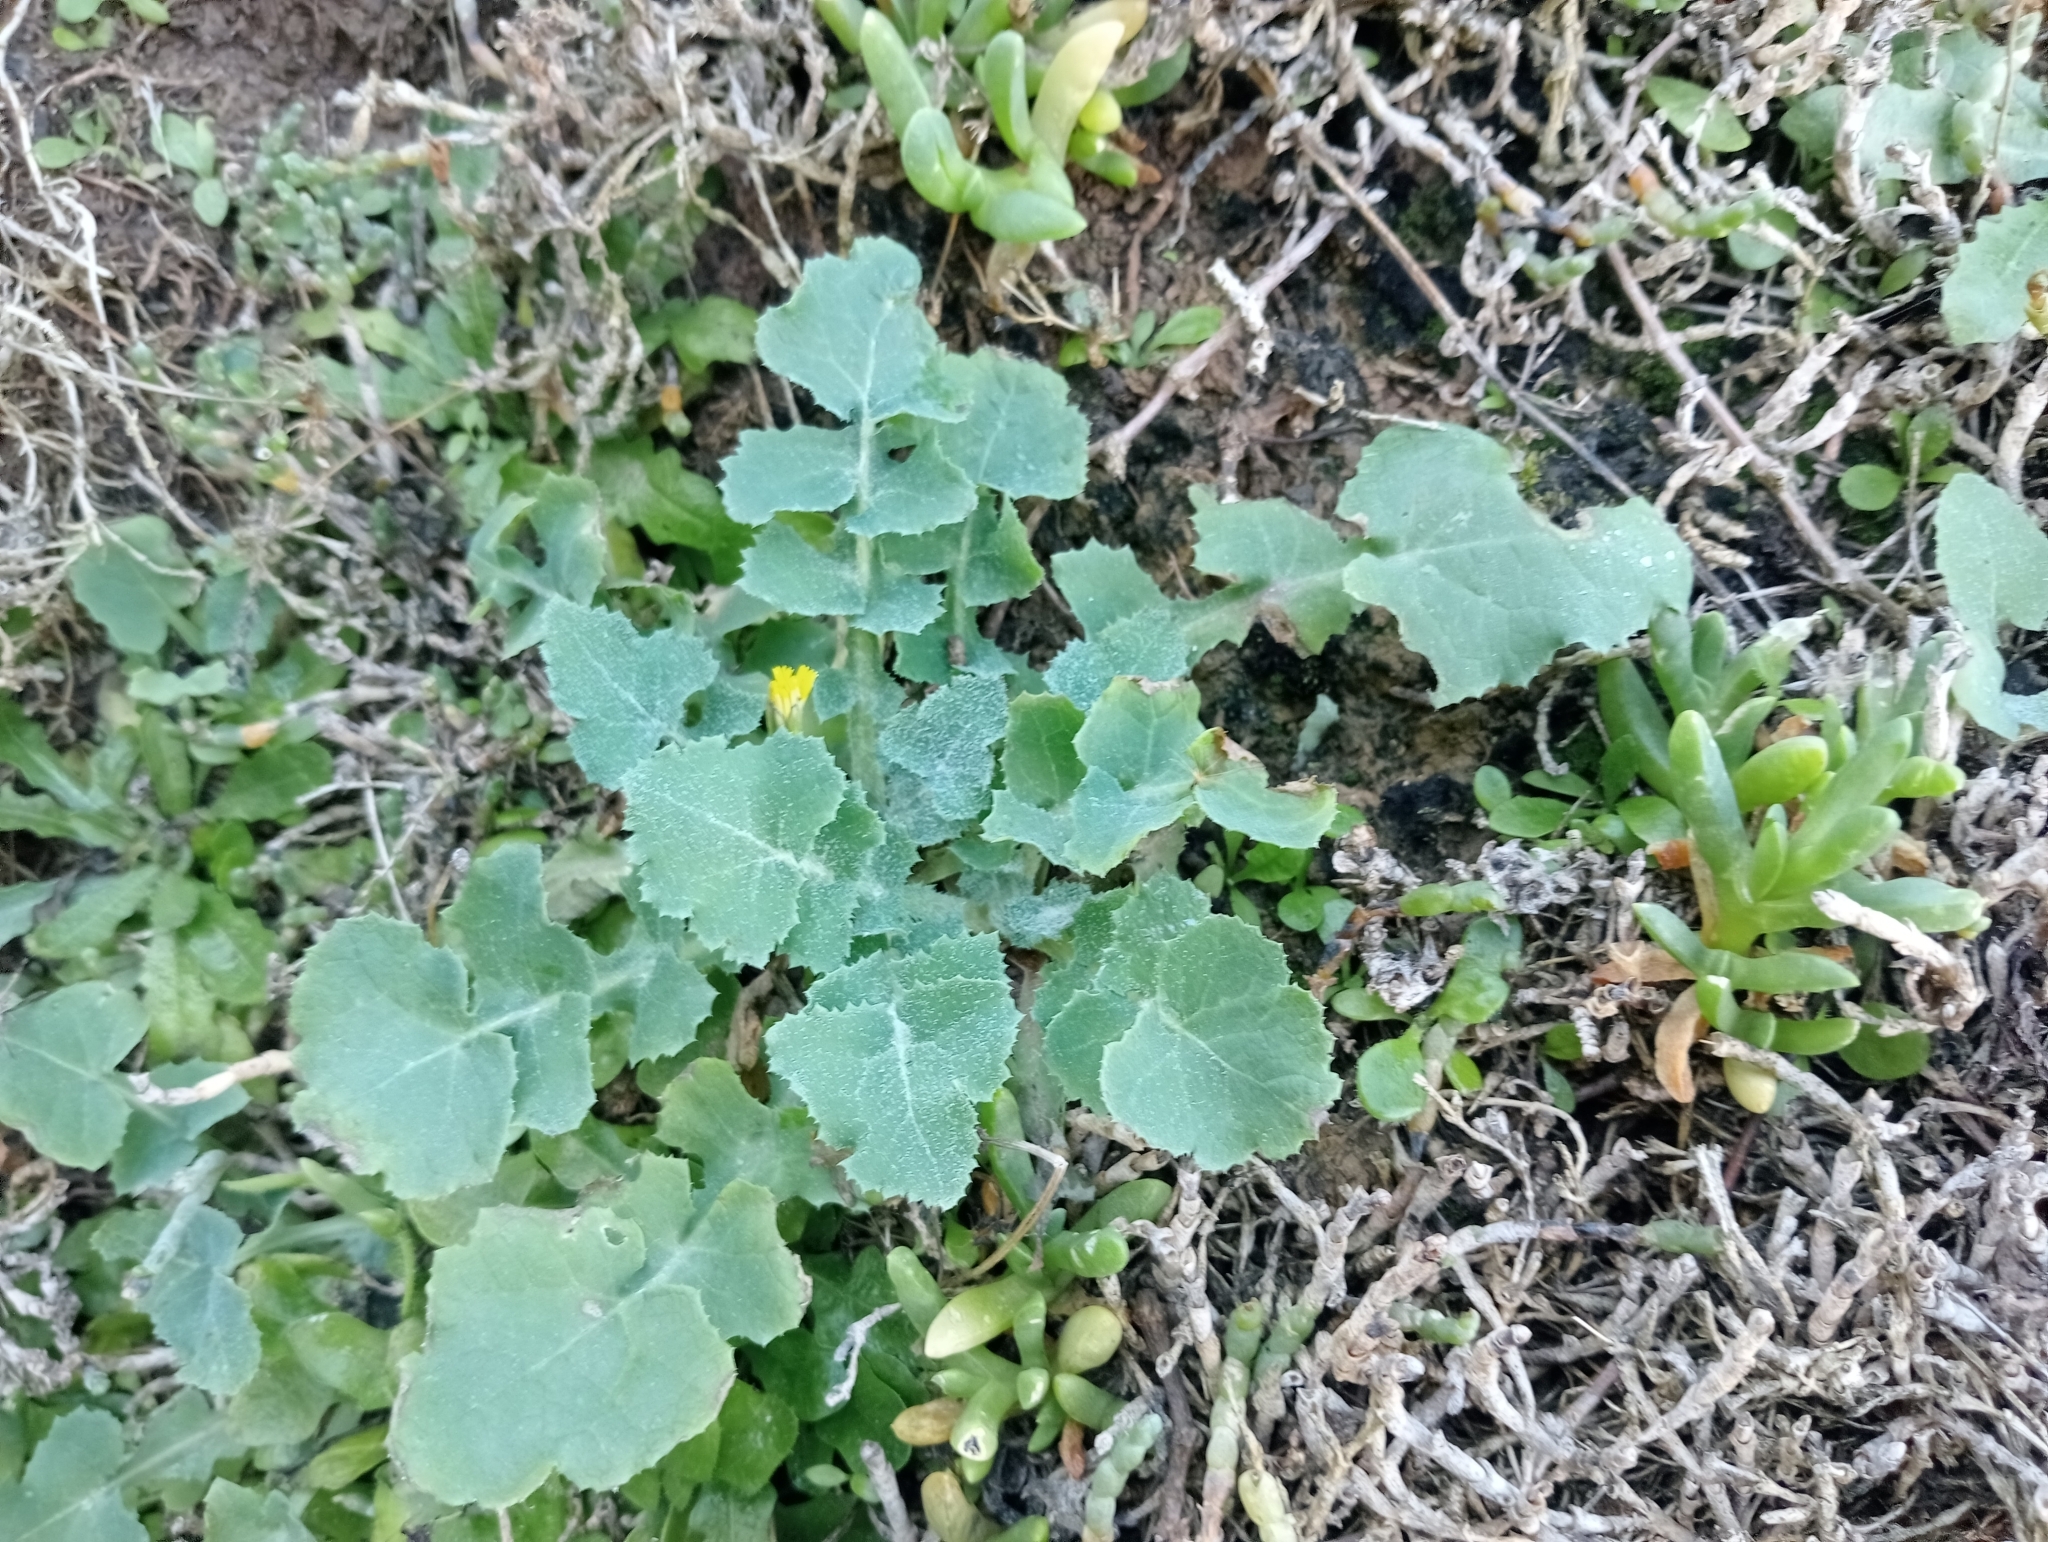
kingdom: Plantae
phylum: Tracheophyta
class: Magnoliopsida
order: Asterales
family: Asteraceae
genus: Sonchus
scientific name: Sonchus oleraceus
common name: Common sowthistle
